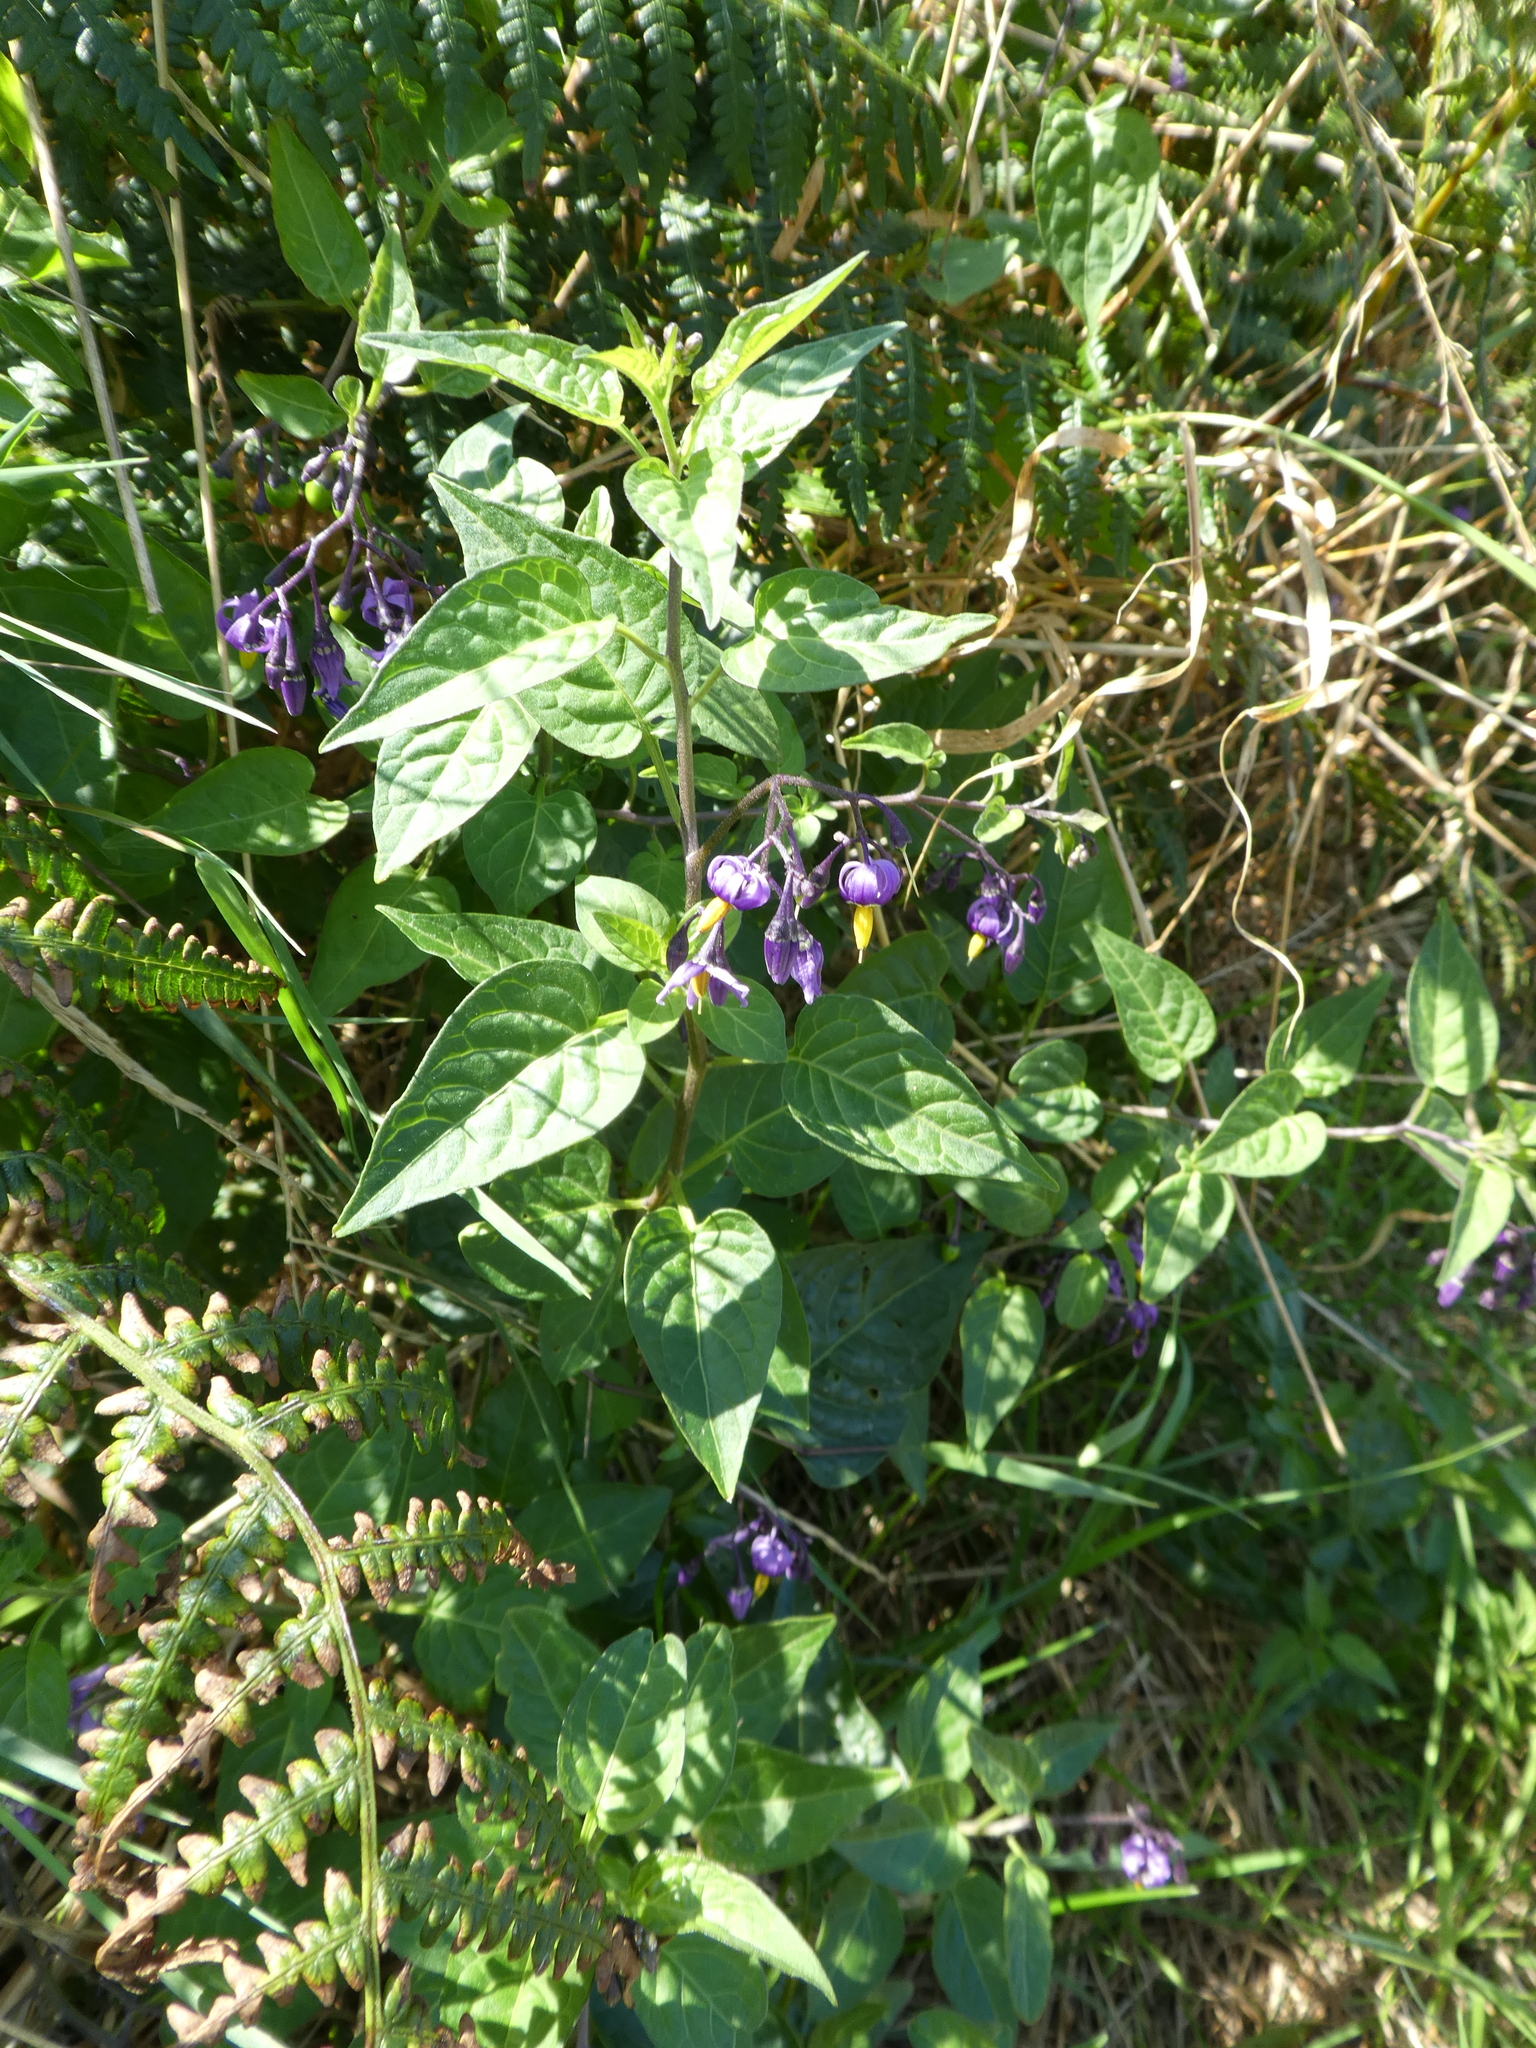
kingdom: Plantae
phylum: Tracheophyta
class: Magnoliopsida
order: Solanales
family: Solanaceae
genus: Solanum
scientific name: Solanum dulcamara
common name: Climbing nightshade
